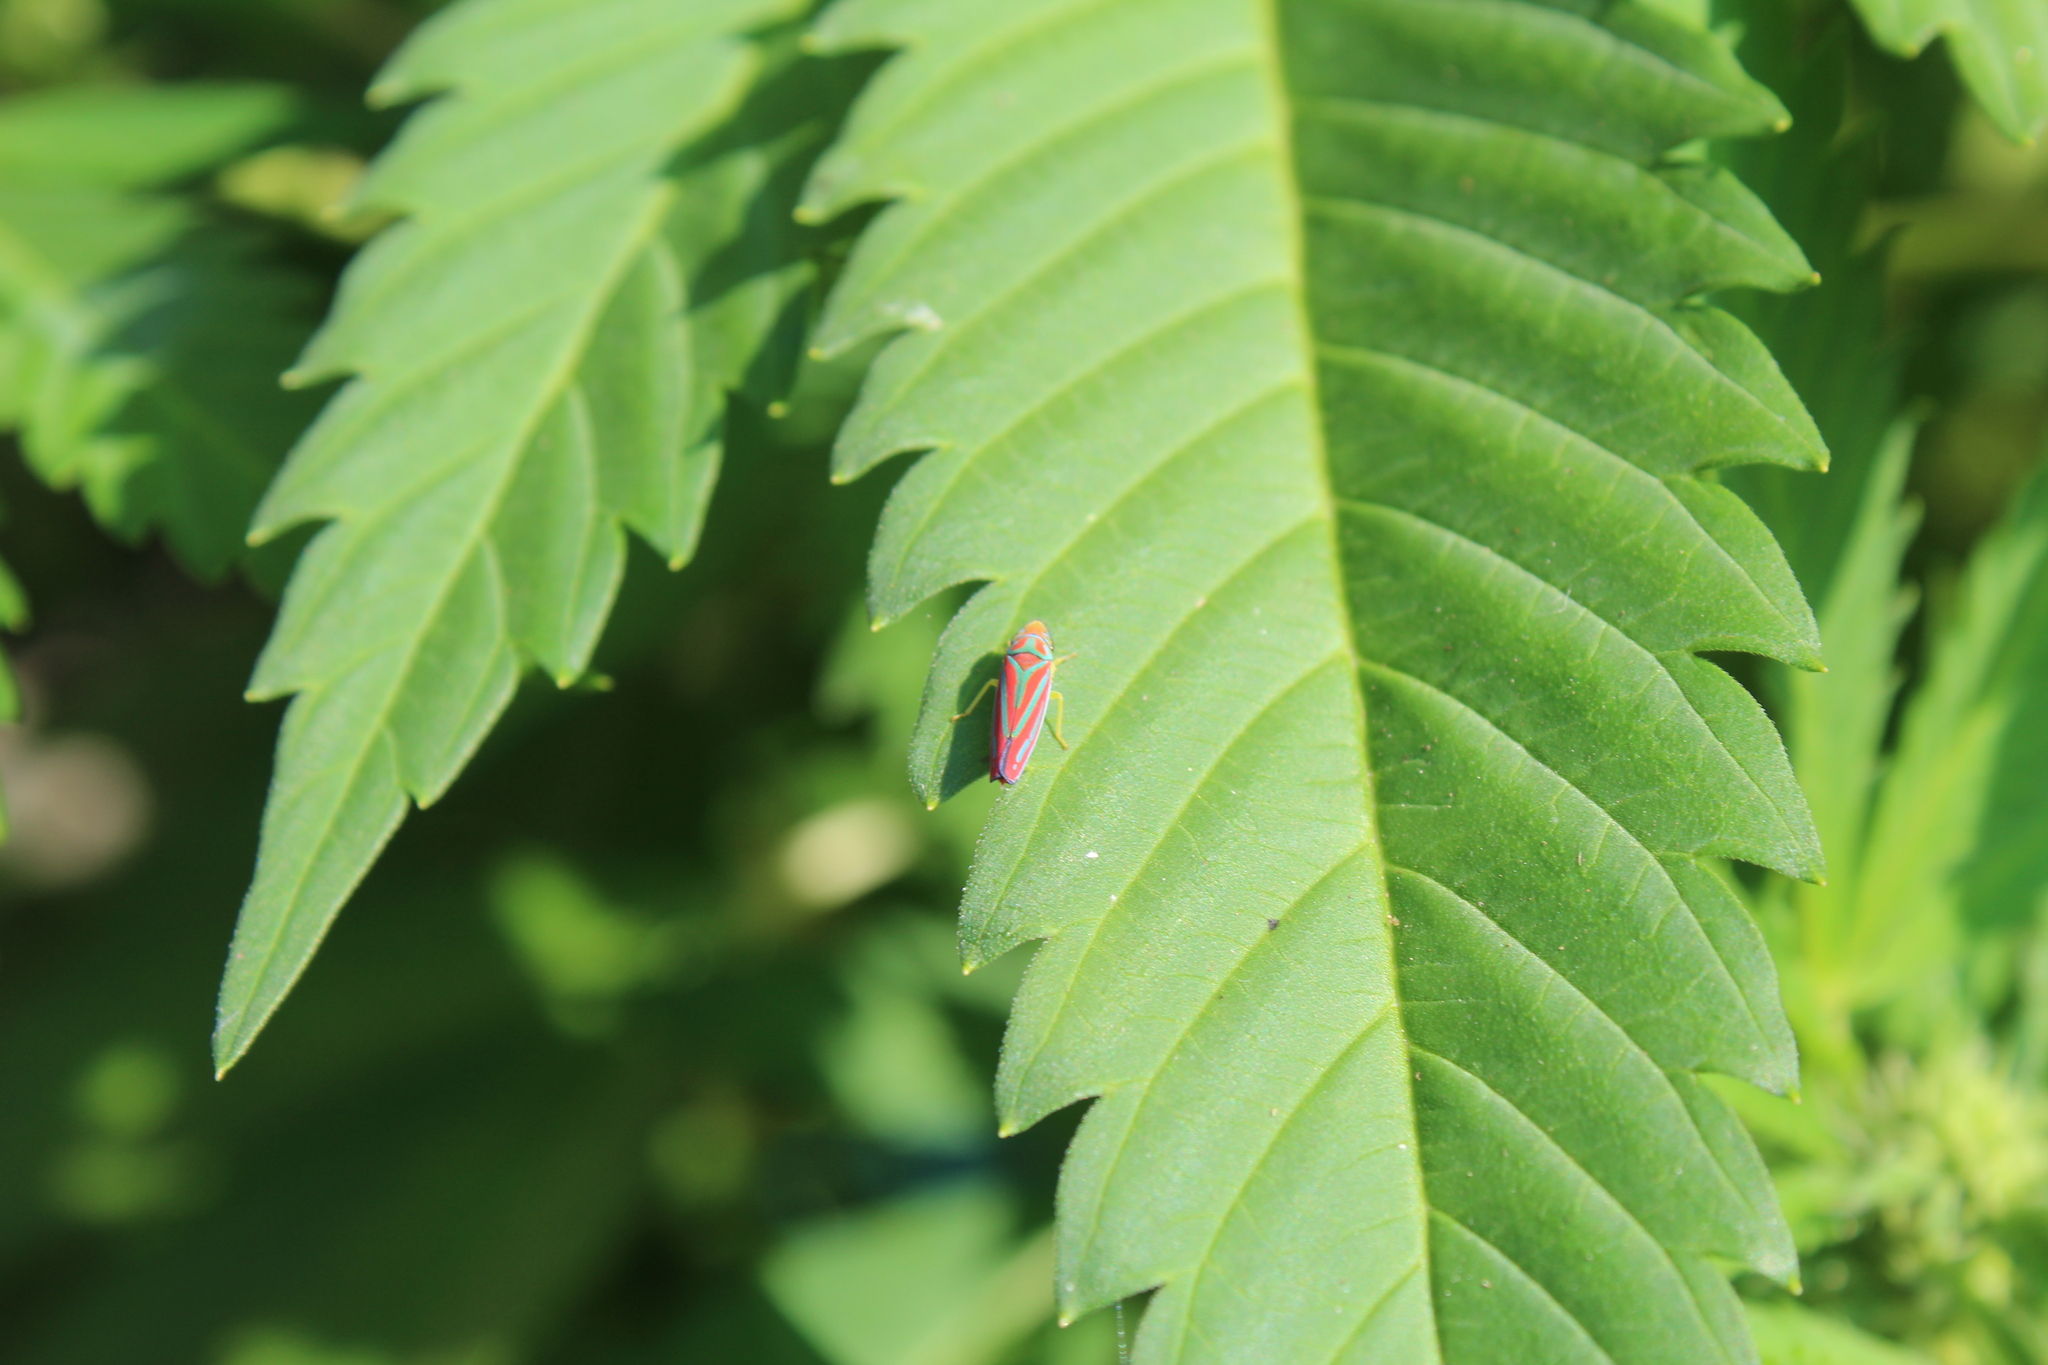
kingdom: Animalia
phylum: Arthropoda
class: Insecta
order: Hemiptera
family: Cicadellidae
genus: Graphocephala
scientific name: Graphocephala coccinea
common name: Candy-striped leafhopper
